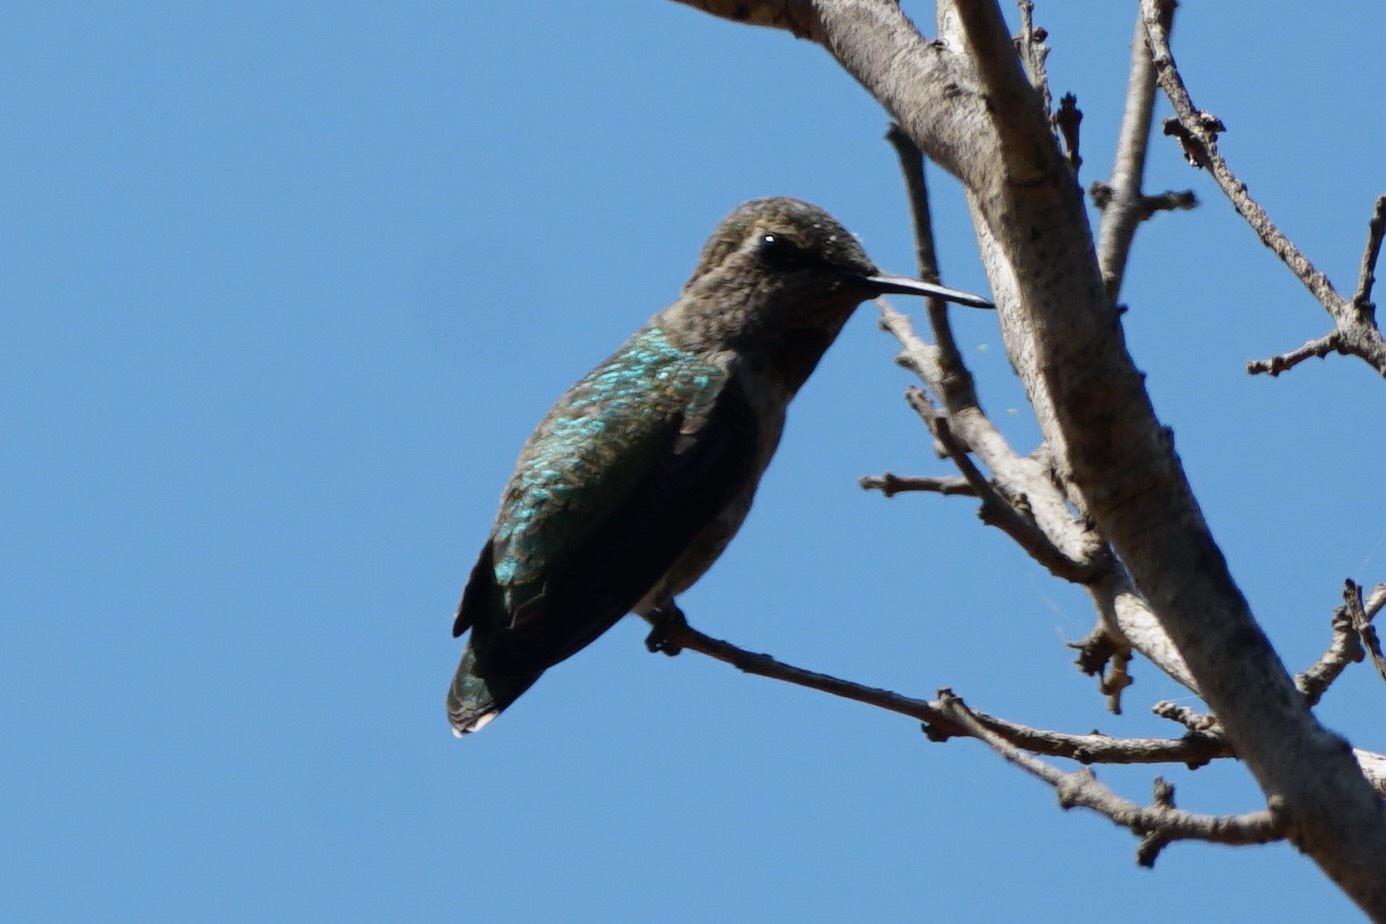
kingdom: Animalia
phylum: Chordata
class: Aves
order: Apodiformes
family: Trochilidae
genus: Calypte
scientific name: Calypte anna
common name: Anna's hummingbird
